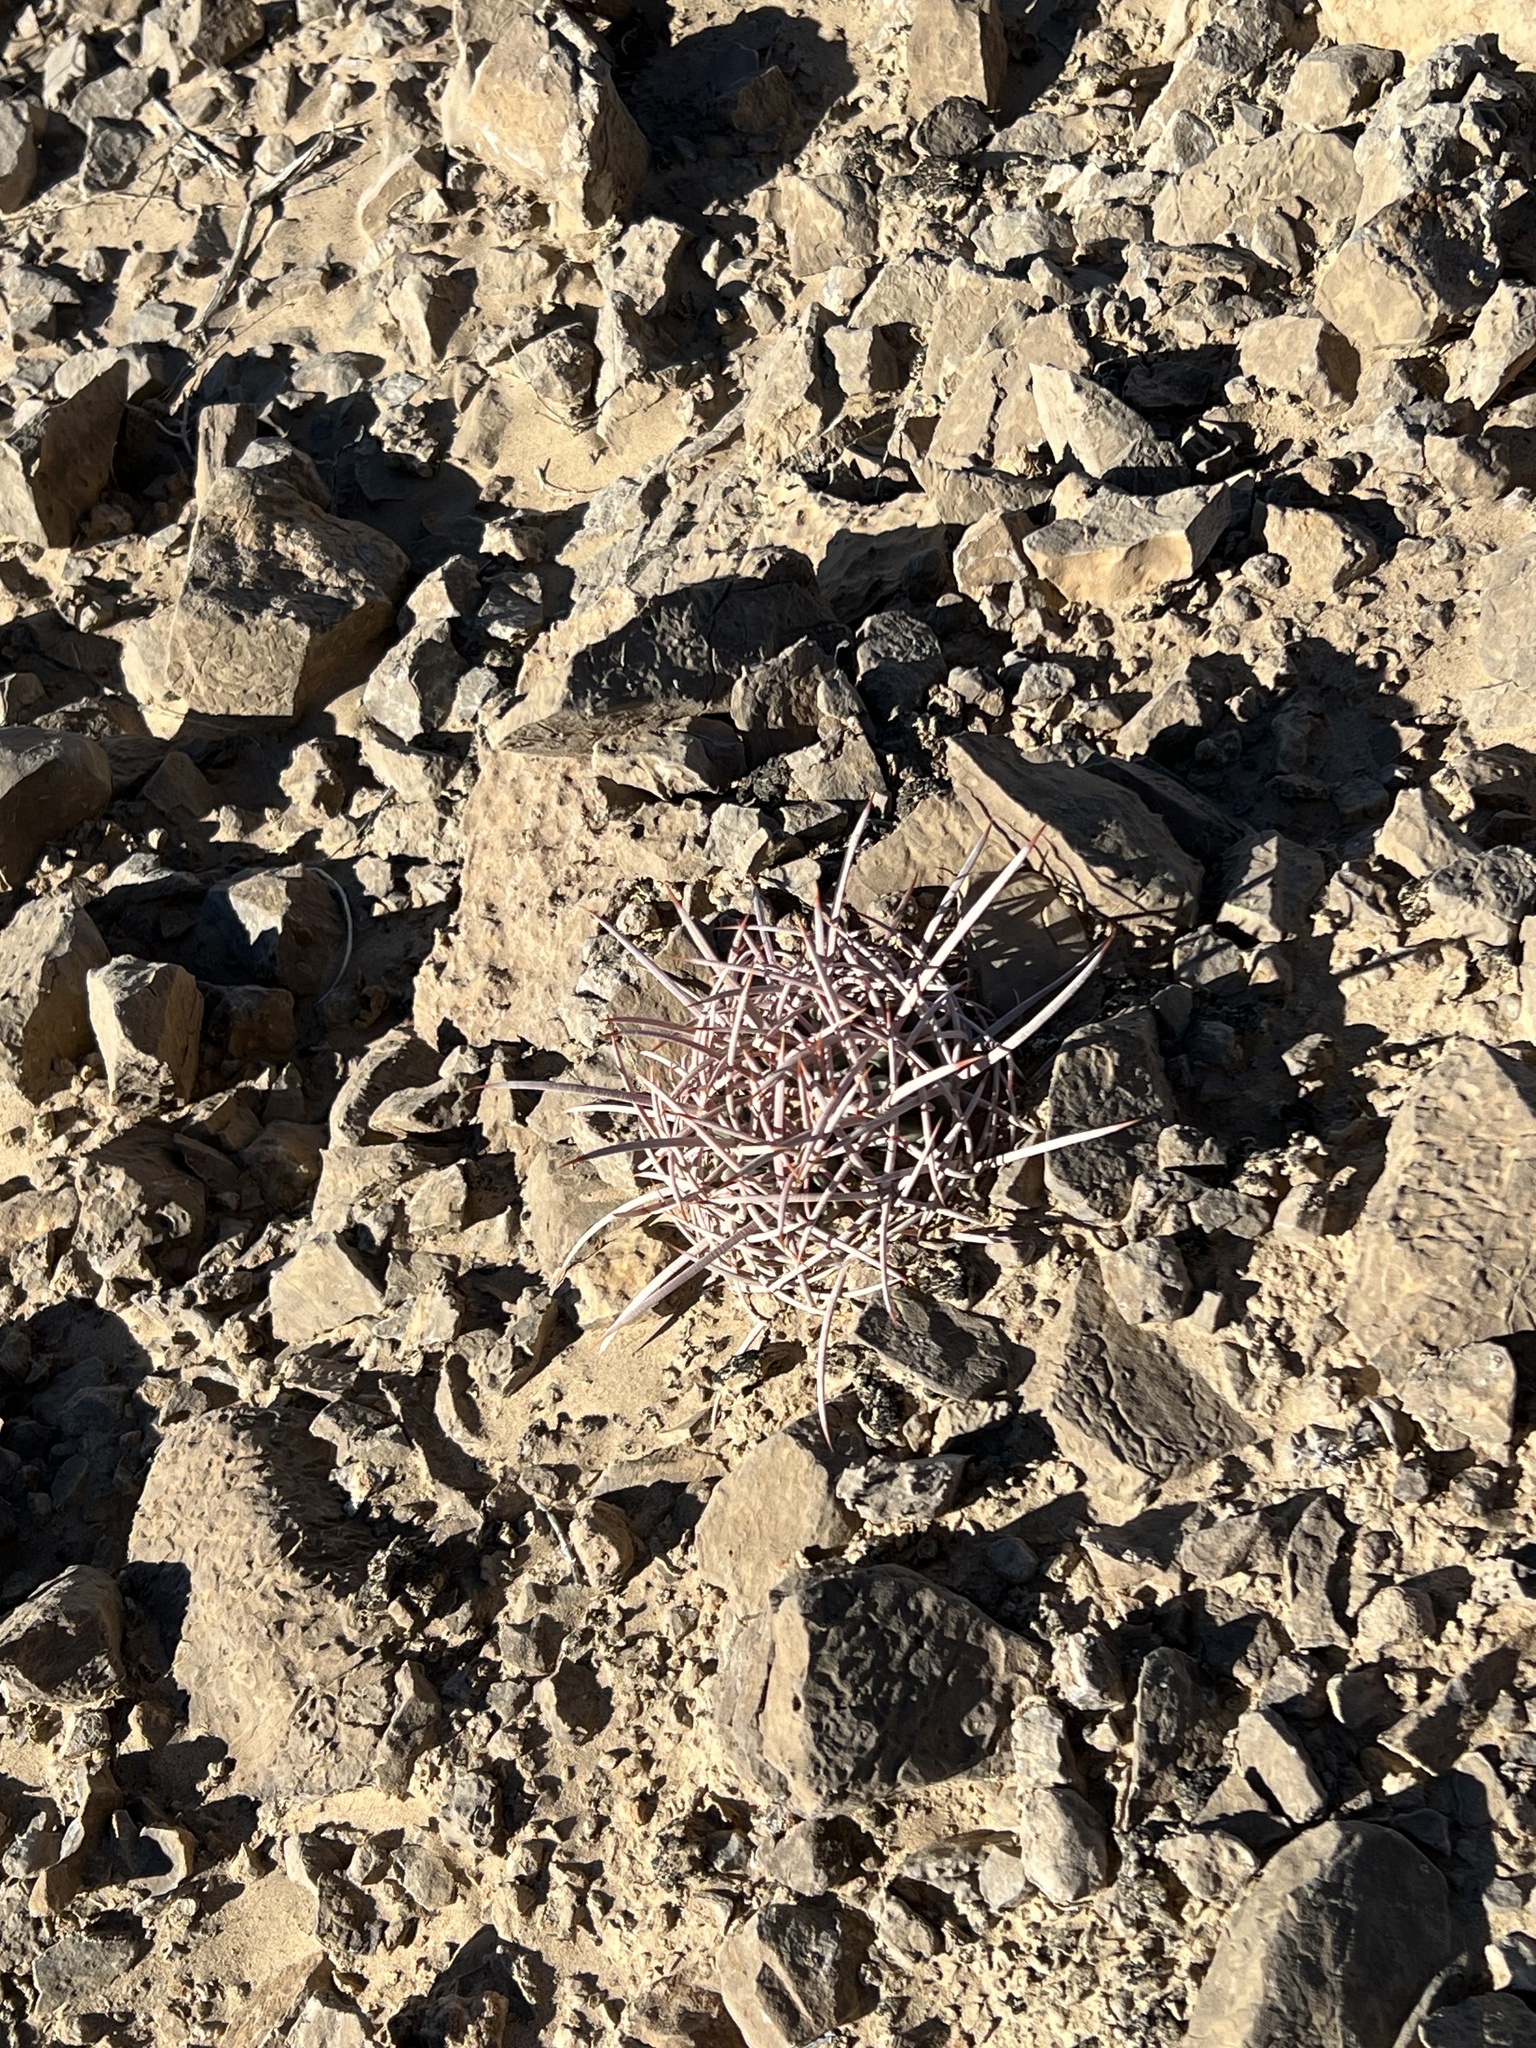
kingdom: Plantae
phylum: Tracheophyta
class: Magnoliopsida
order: Caryophyllales
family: Cactaceae
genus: Echinocactus
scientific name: Echinocactus polycephalus
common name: Cottontop cactus
